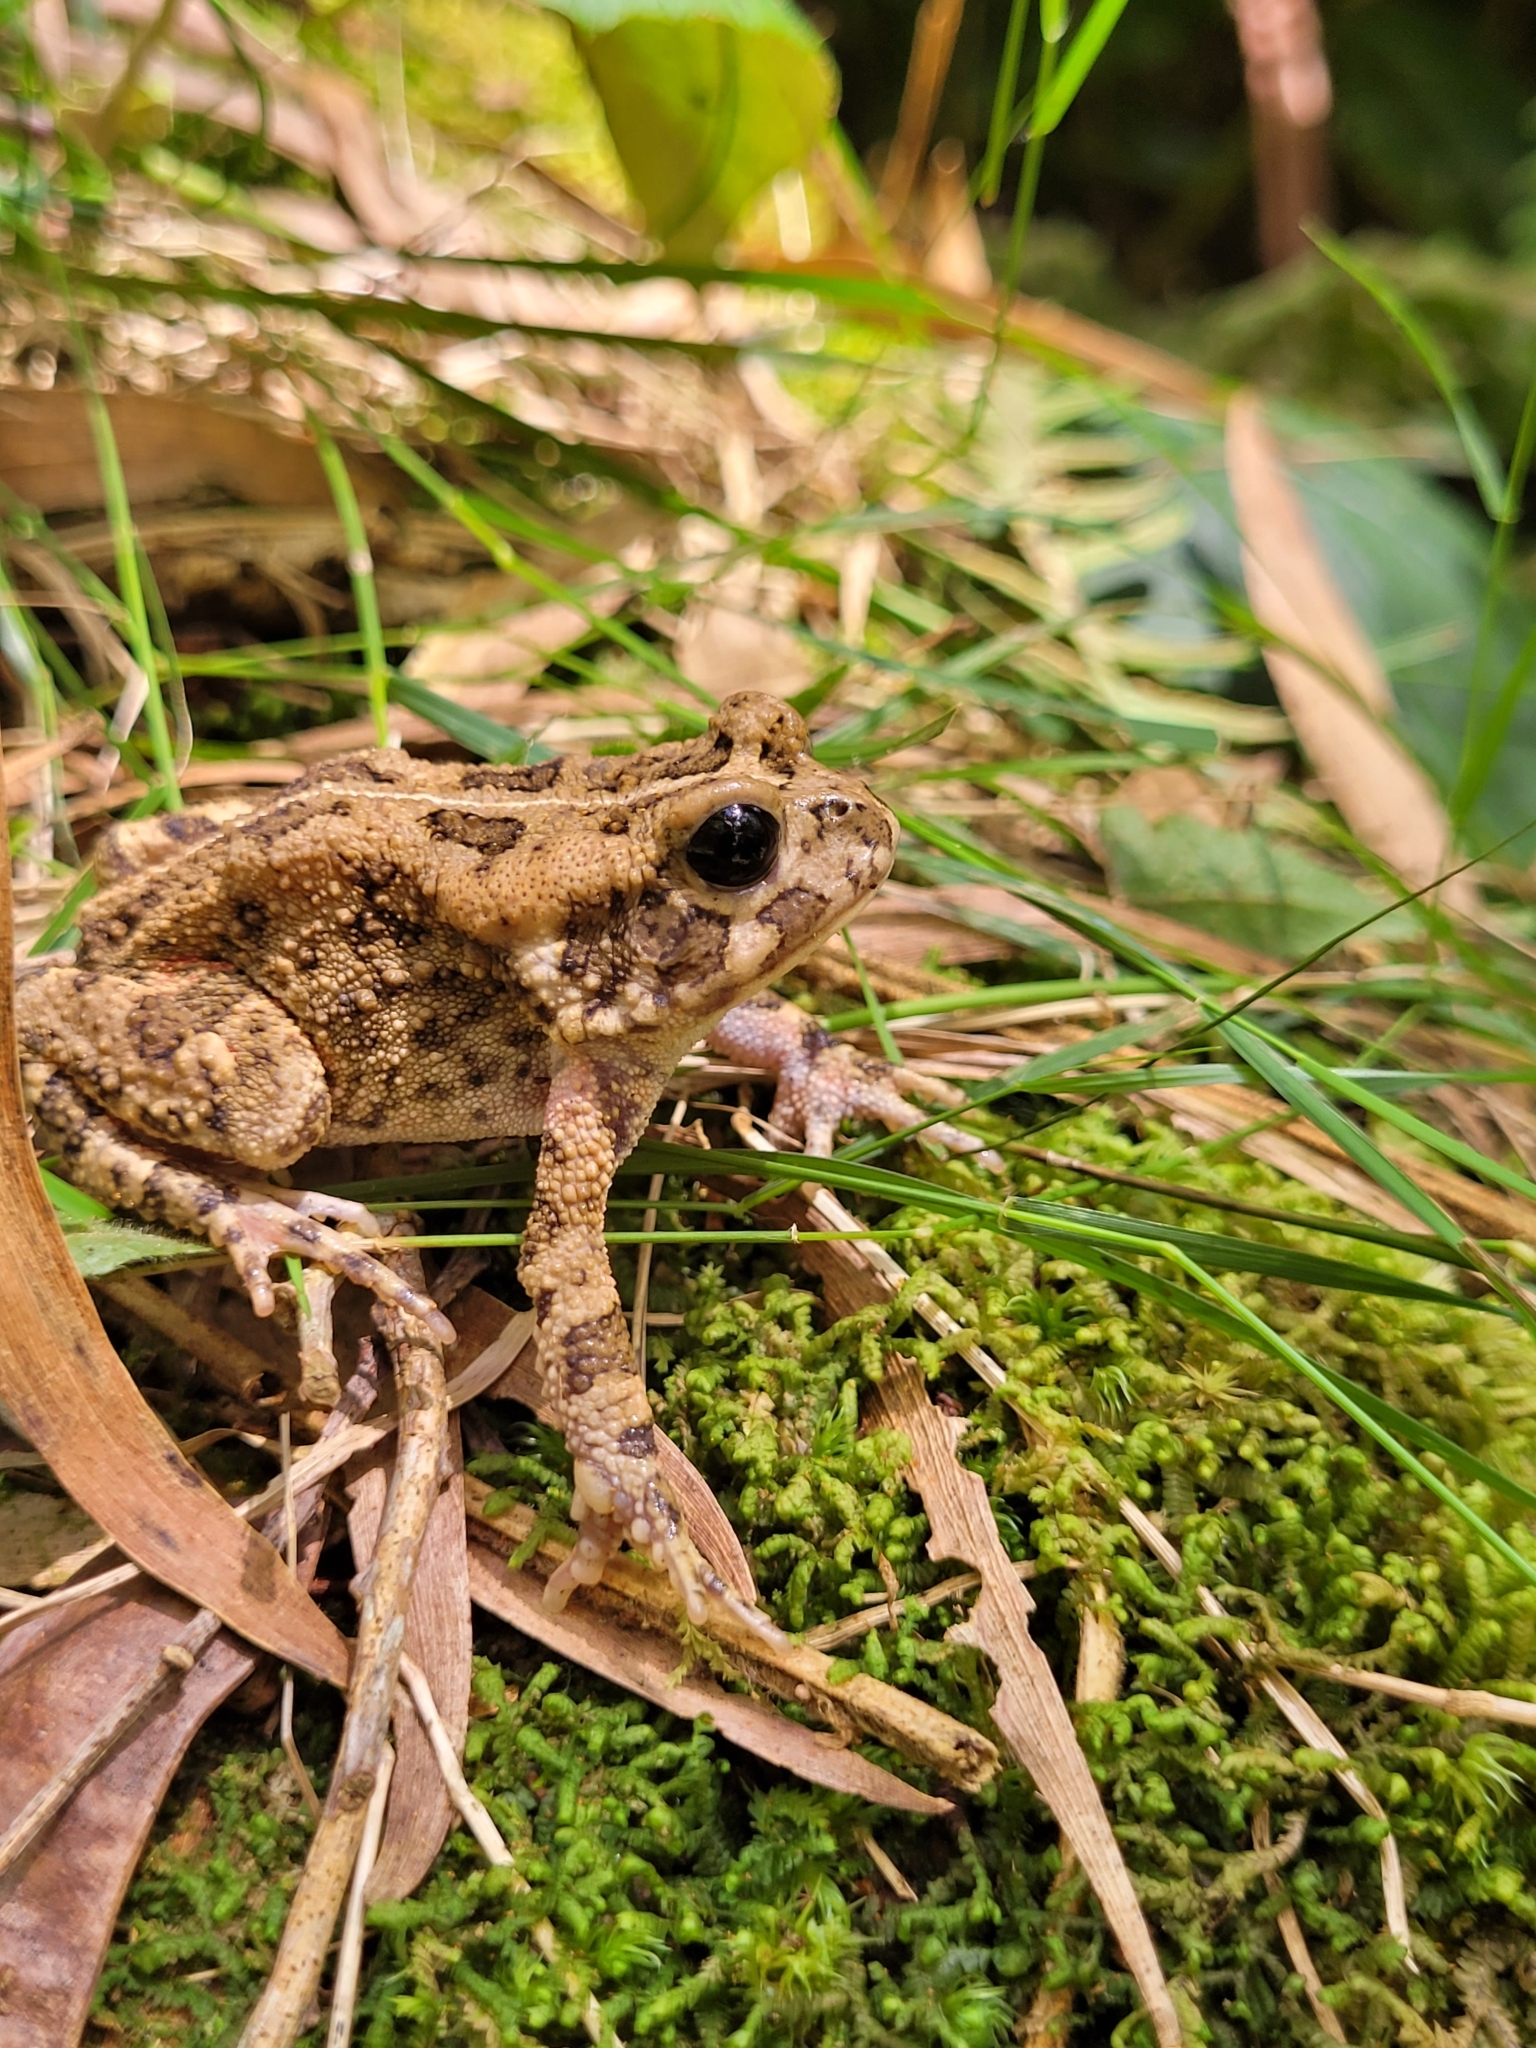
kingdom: Animalia
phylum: Chordata
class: Amphibia
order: Anura
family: Bufonidae
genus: Sclerophrys
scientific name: Sclerophrys gutturalis
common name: African common toad
